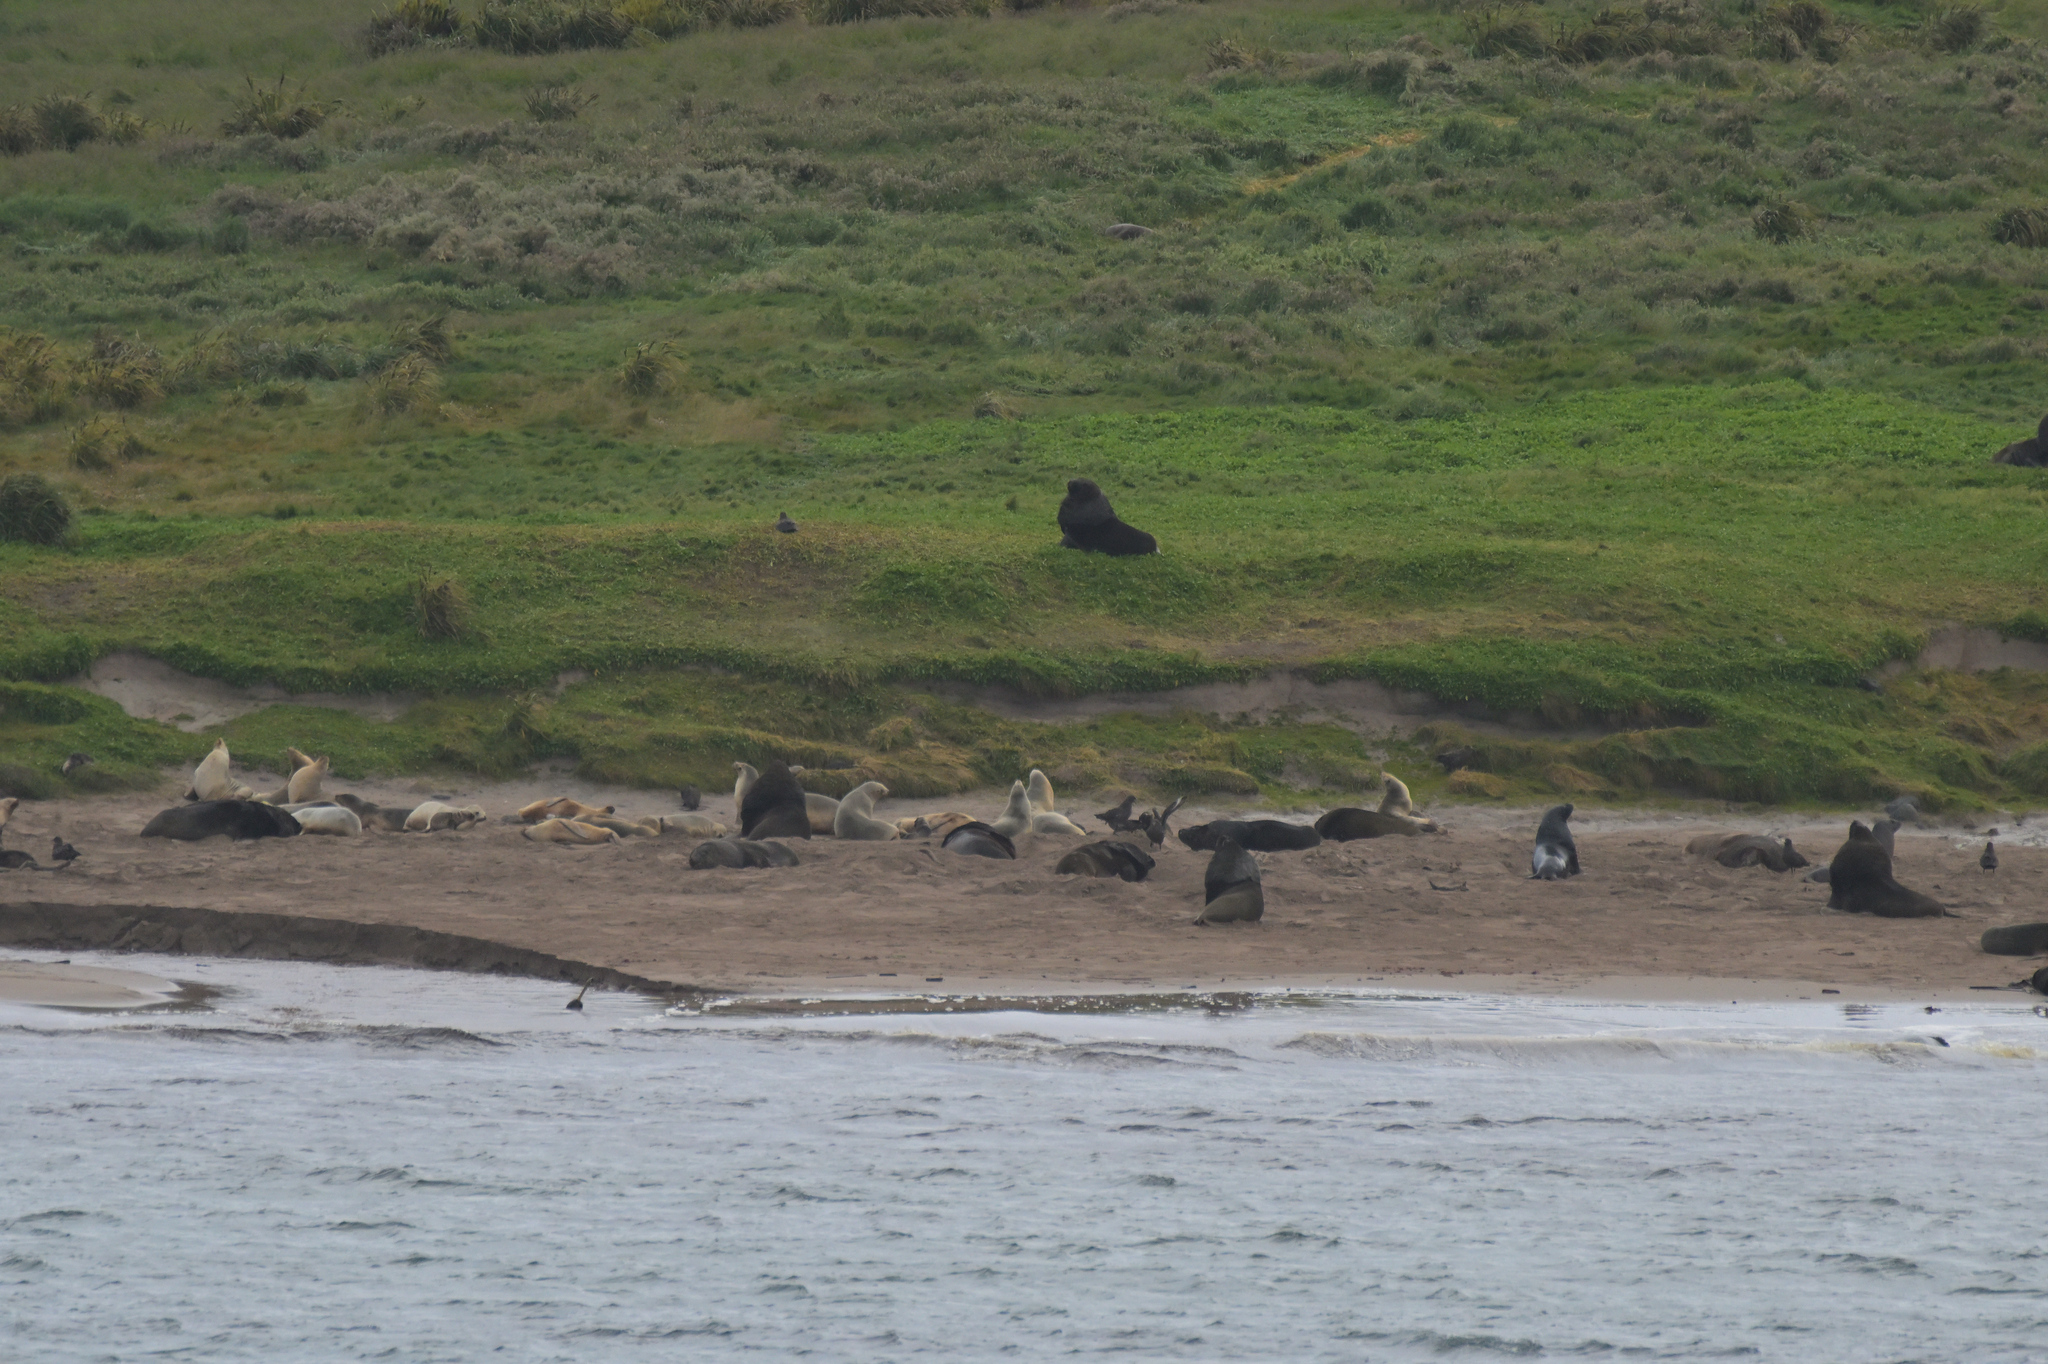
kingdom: Animalia
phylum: Chordata
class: Mammalia
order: Carnivora
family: Otariidae
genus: Phocarctos
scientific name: Phocarctos hookeri
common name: New zealand sea lion
